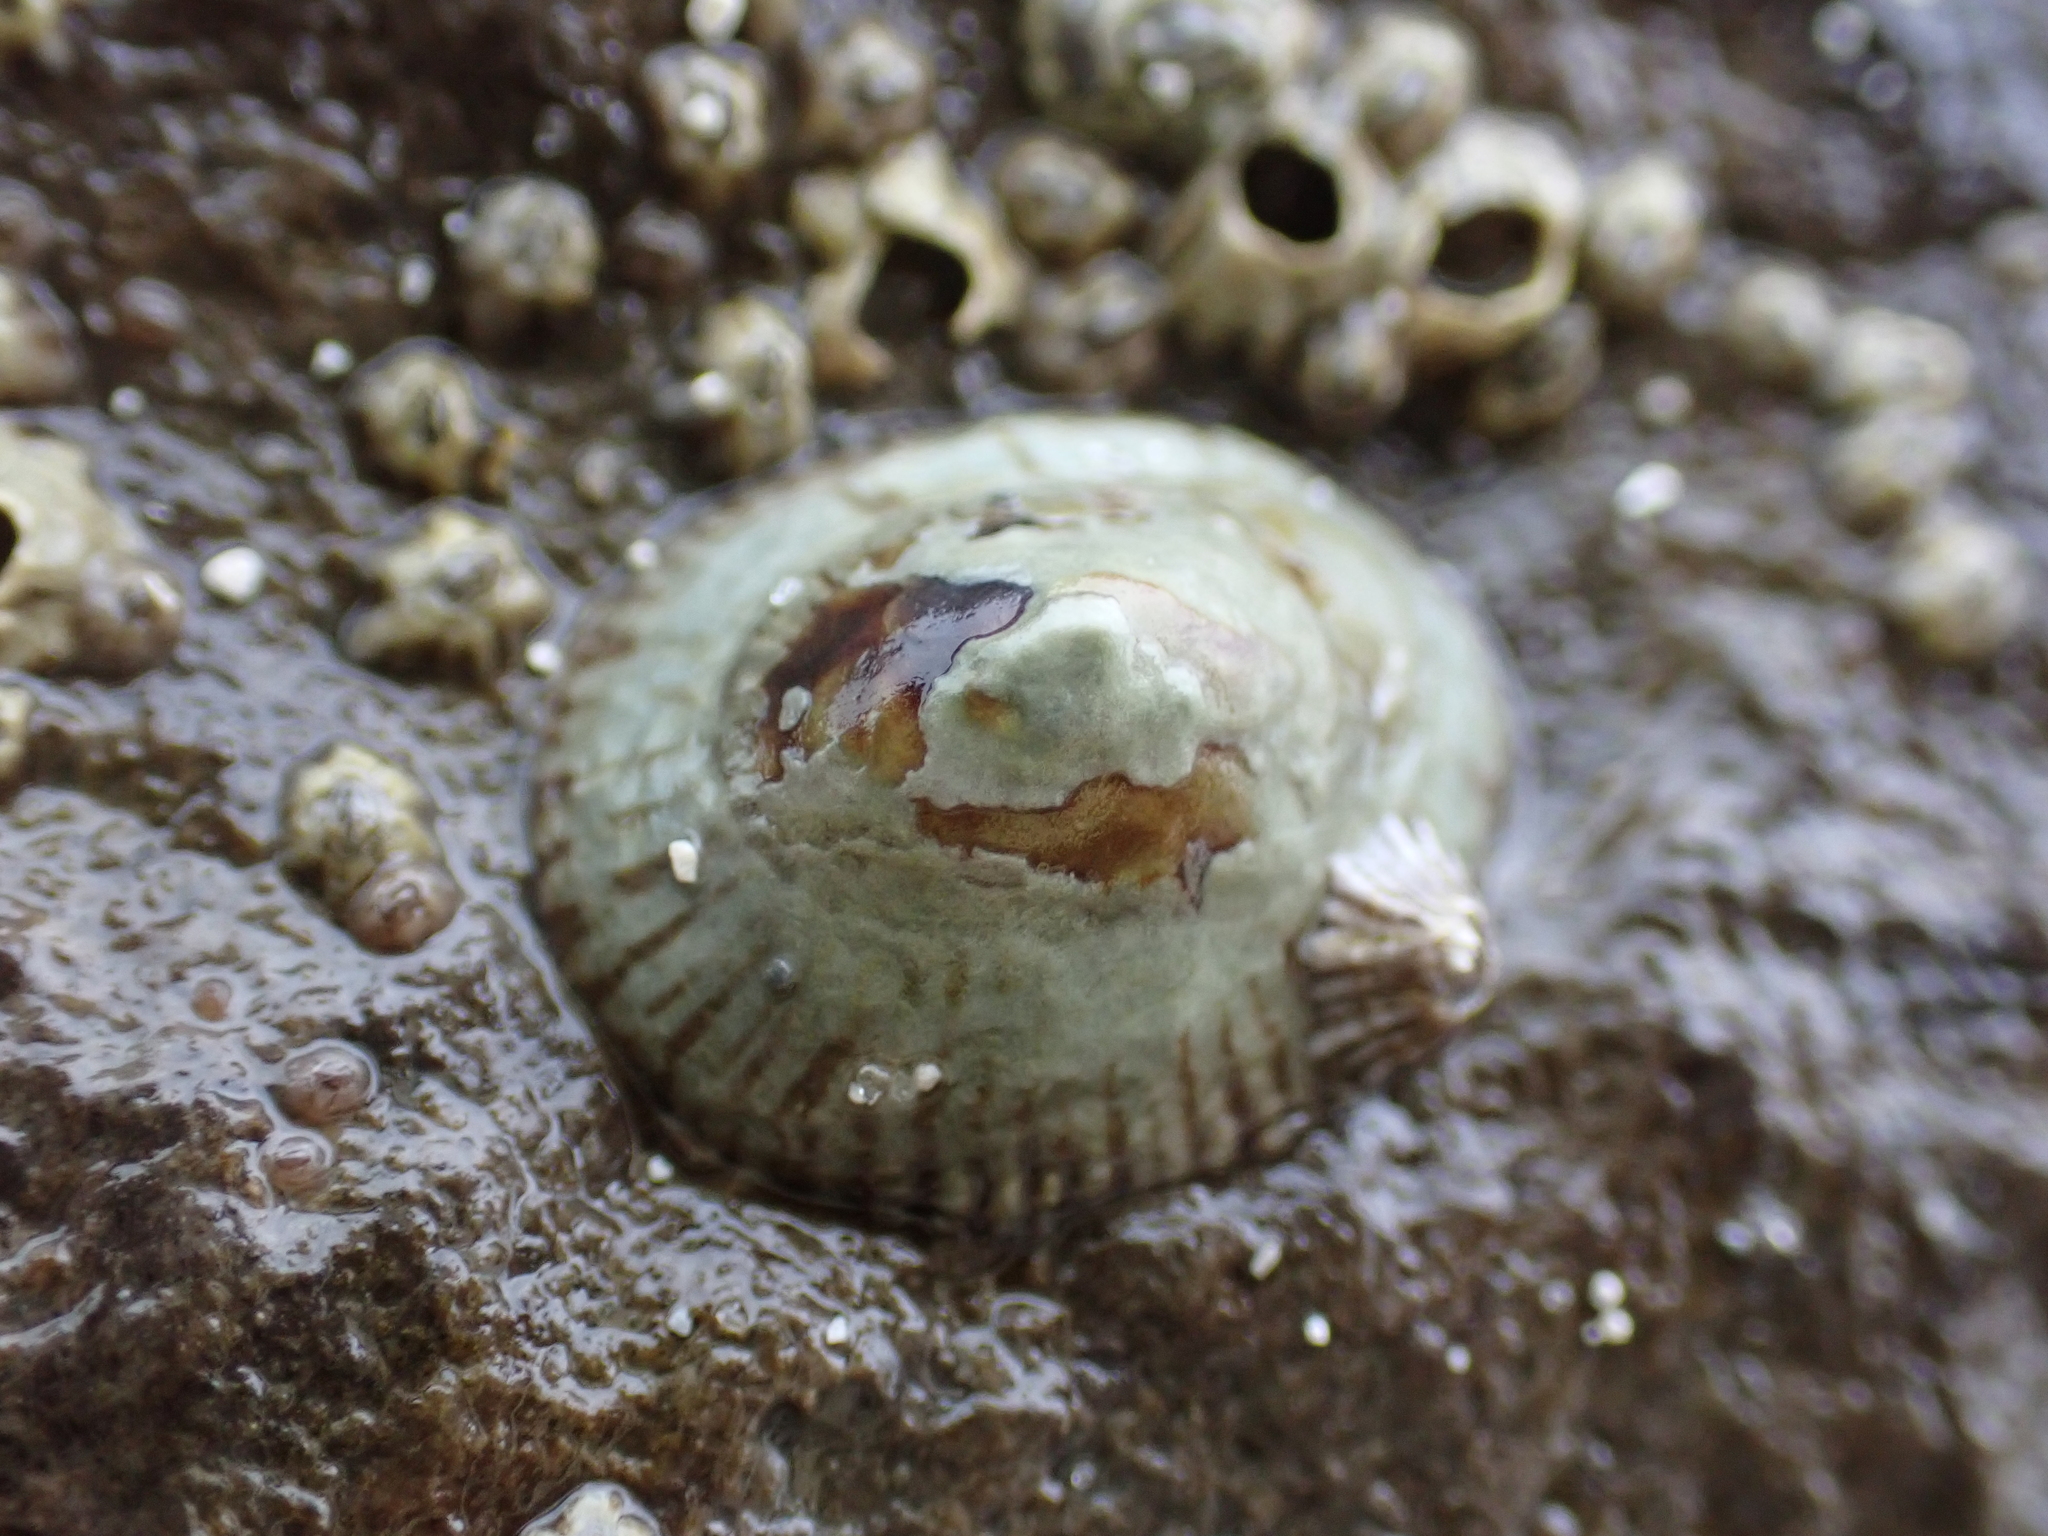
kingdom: Animalia
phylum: Mollusca
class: Gastropoda
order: Siphonariida
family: Siphonariidae
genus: Siphonaria
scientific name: Siphonaria naufragum
